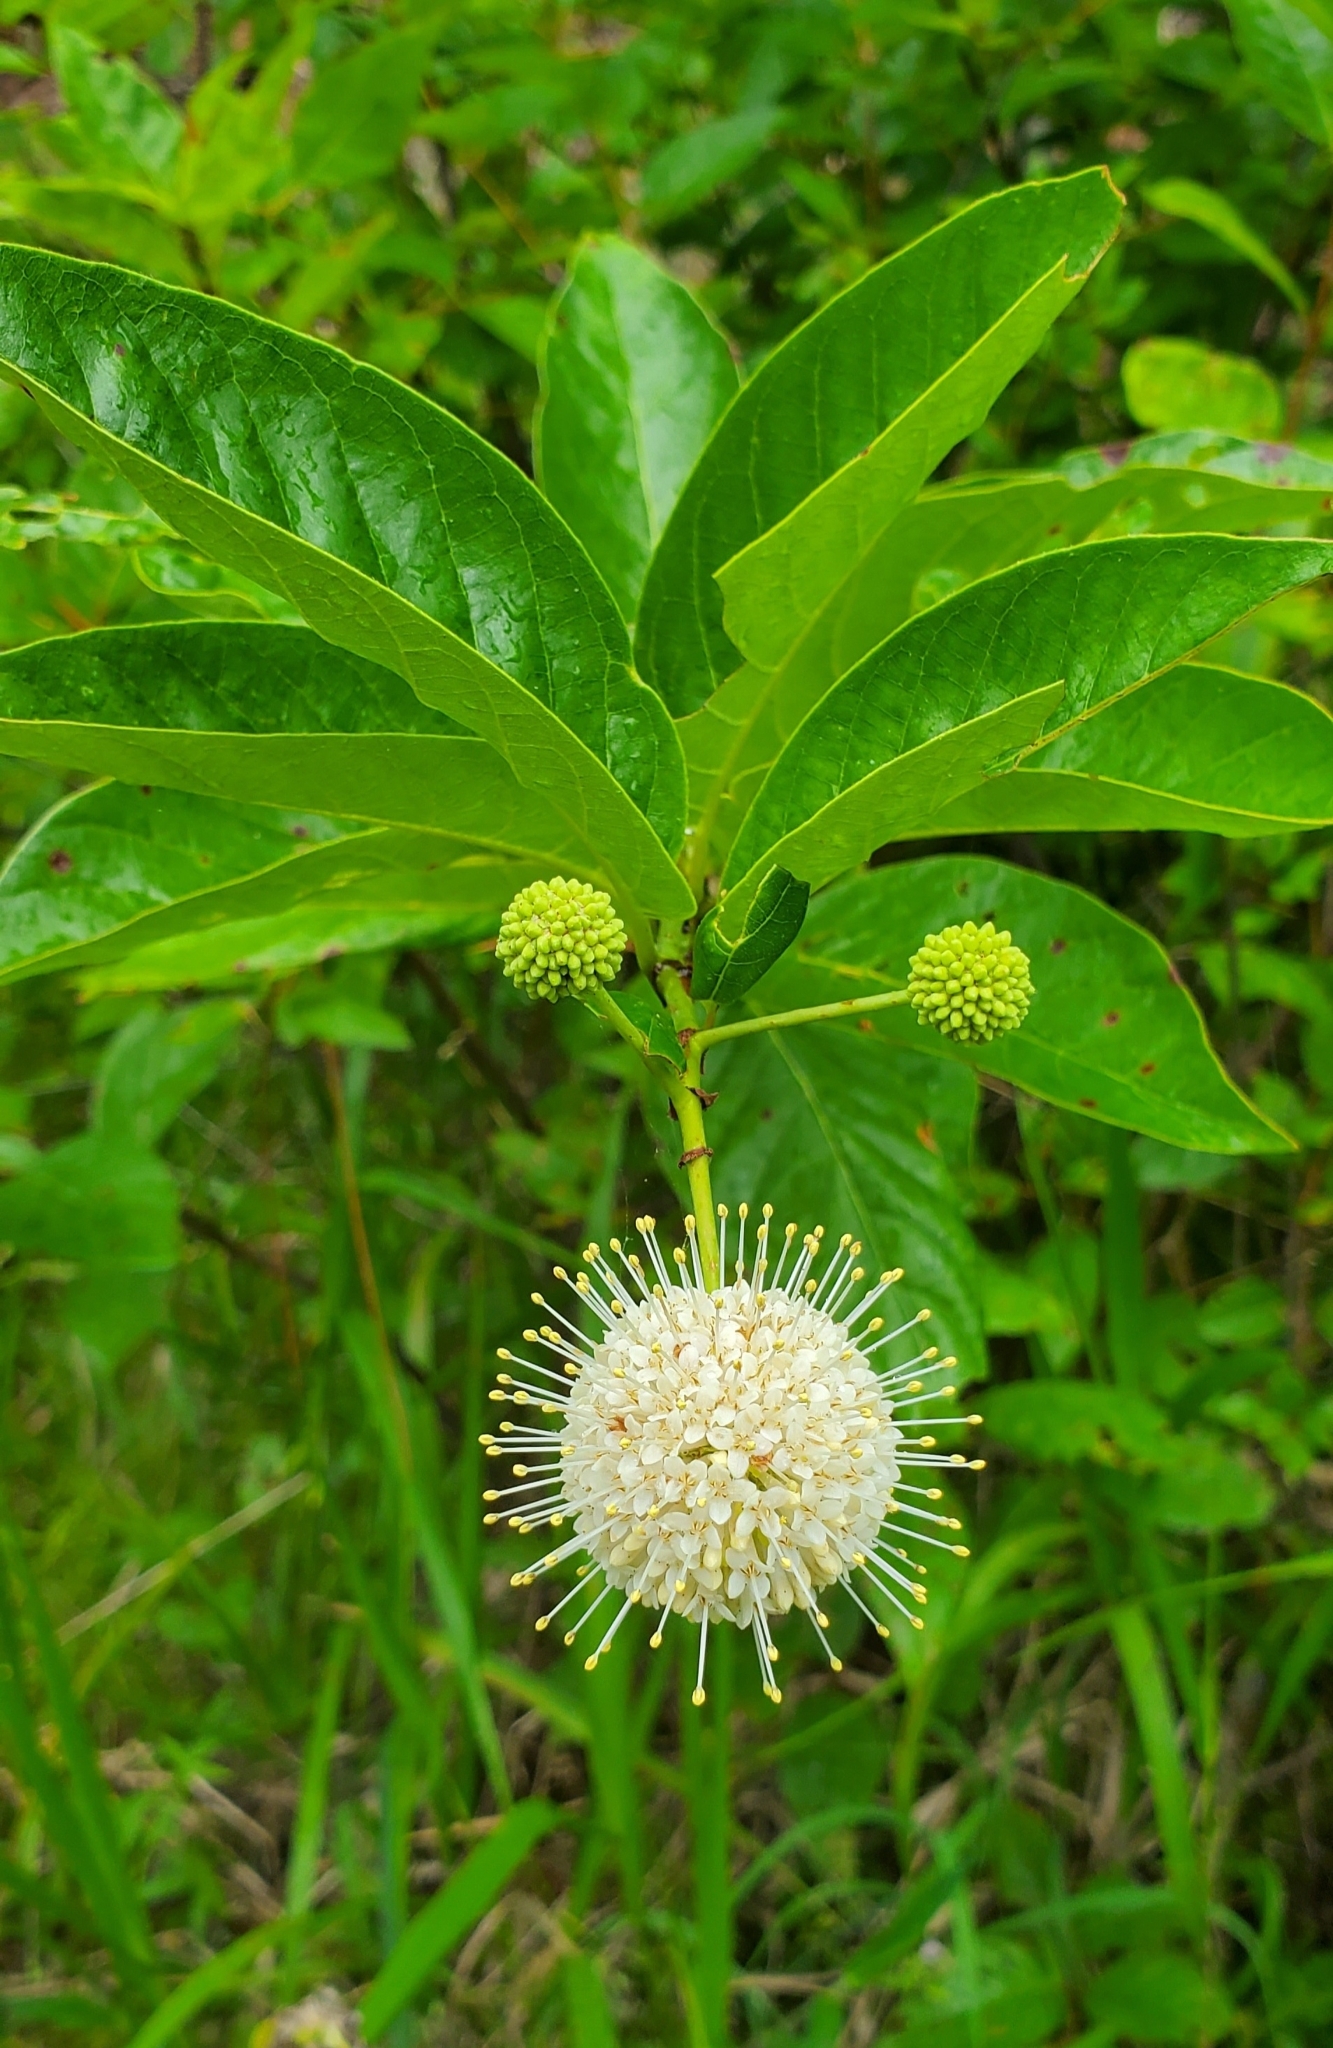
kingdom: Plantae
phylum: Tracheophyta
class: Magnoliopsida
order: Gentianales
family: Rubiaceae
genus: Cephalanthus
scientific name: Cephalanthus occidentalis
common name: Button-willow
